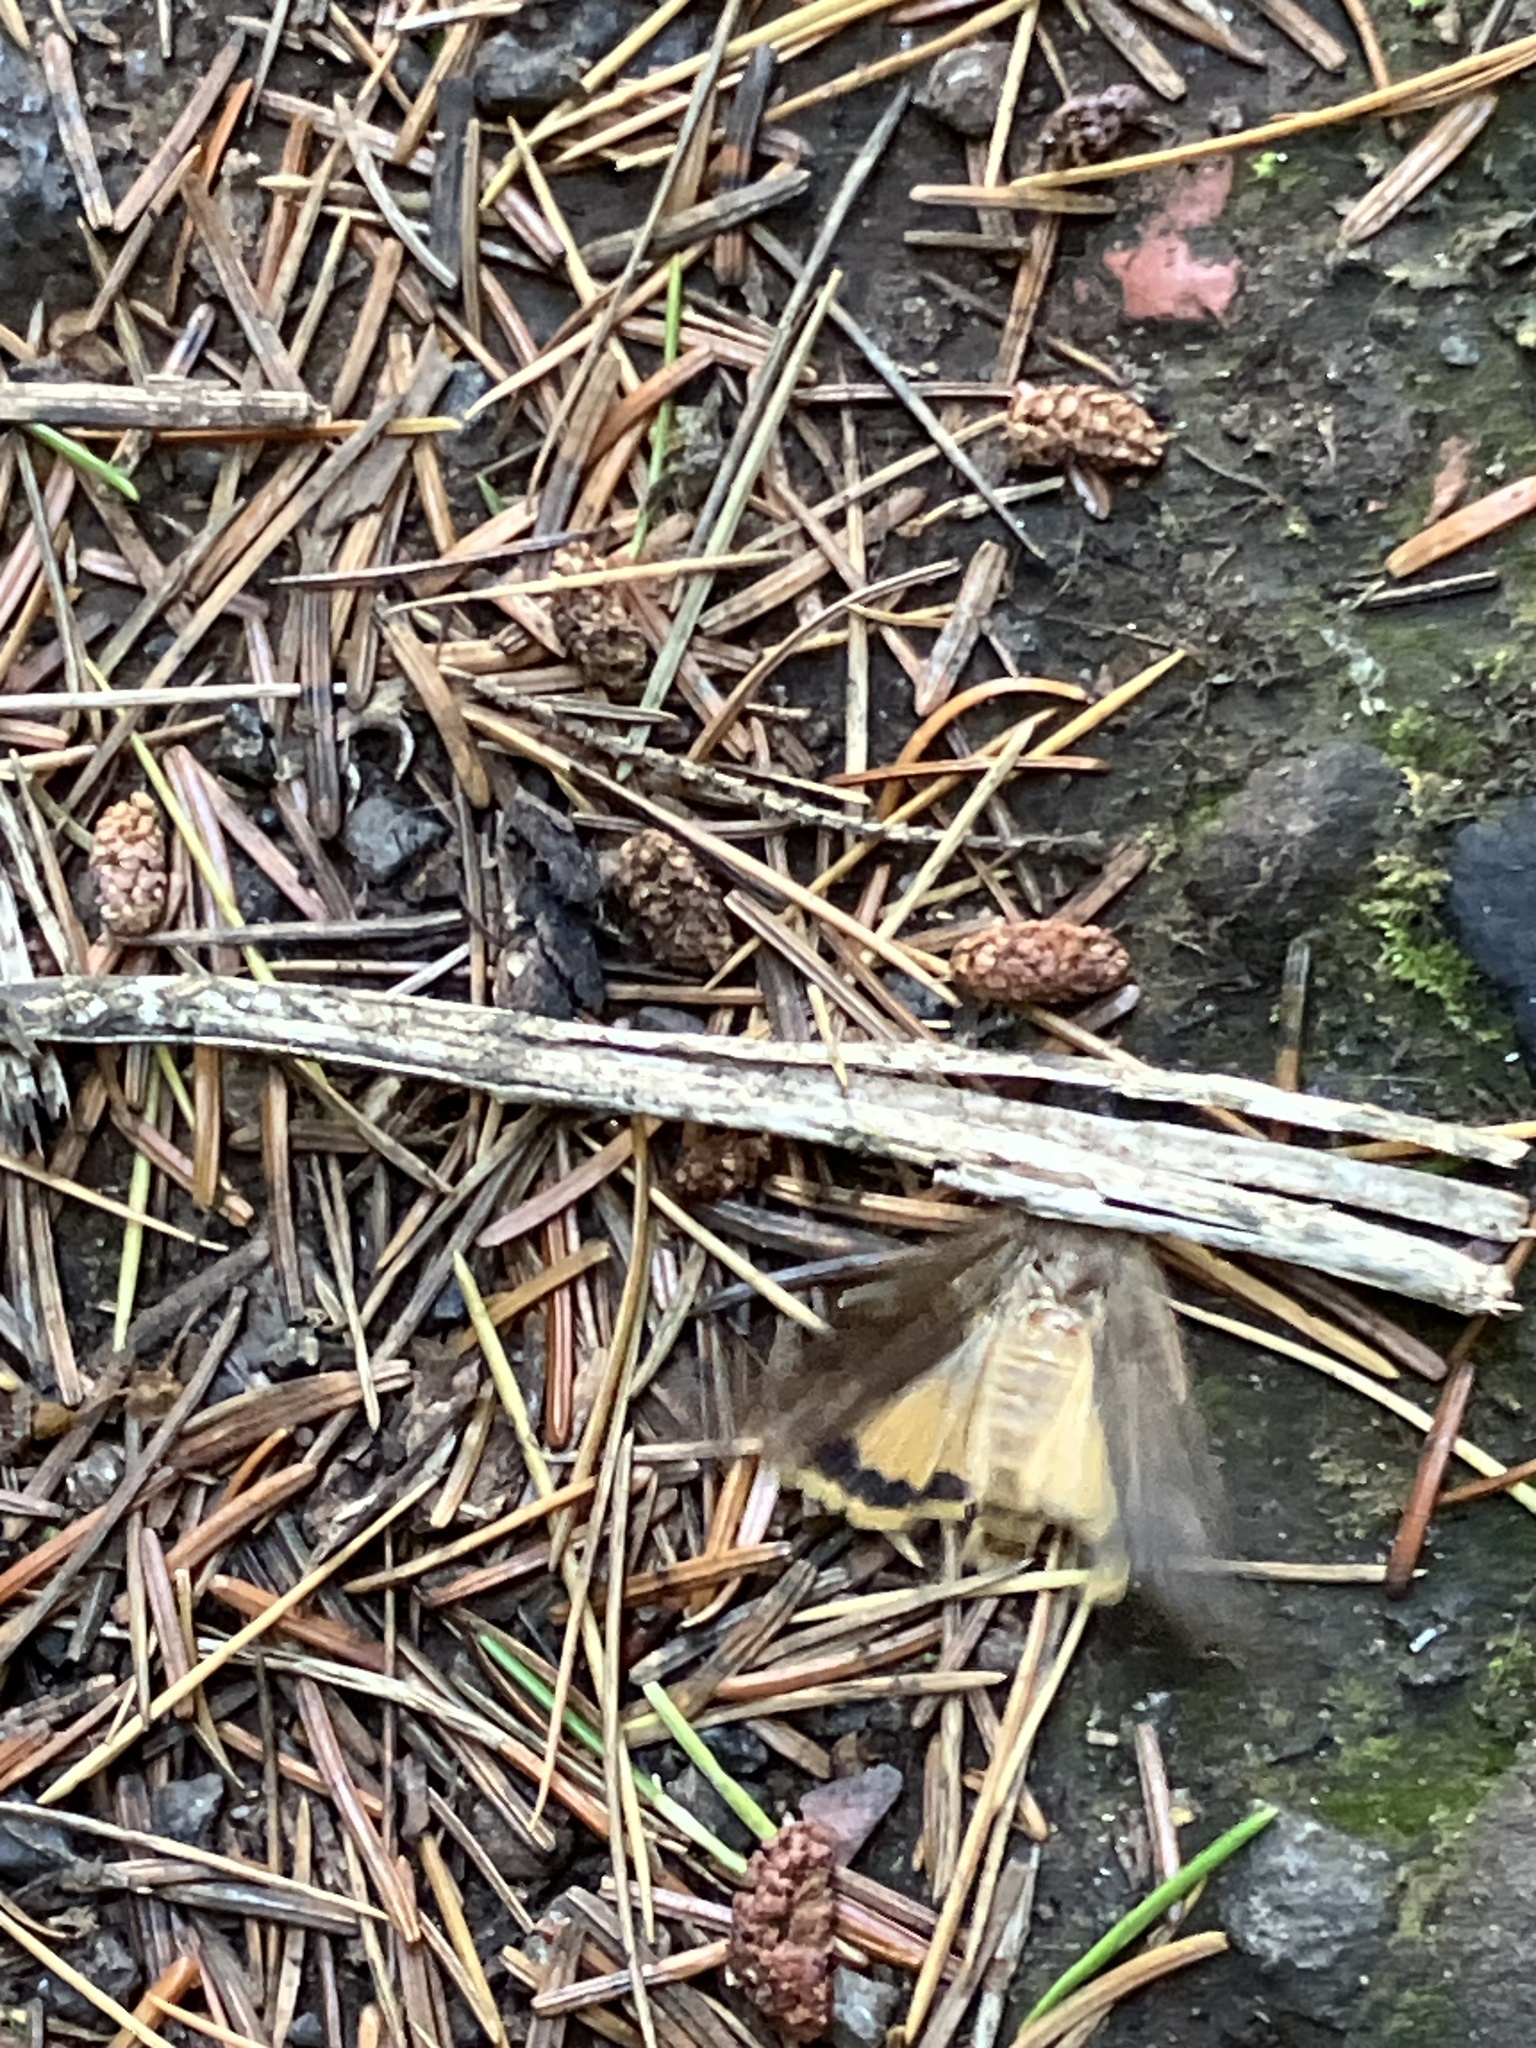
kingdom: Animalia
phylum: Arthropoda
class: Insecta
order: Lepidoptera
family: Noctuidae
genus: Noctua
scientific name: Noctua pronuba
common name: Large yellow underwing
